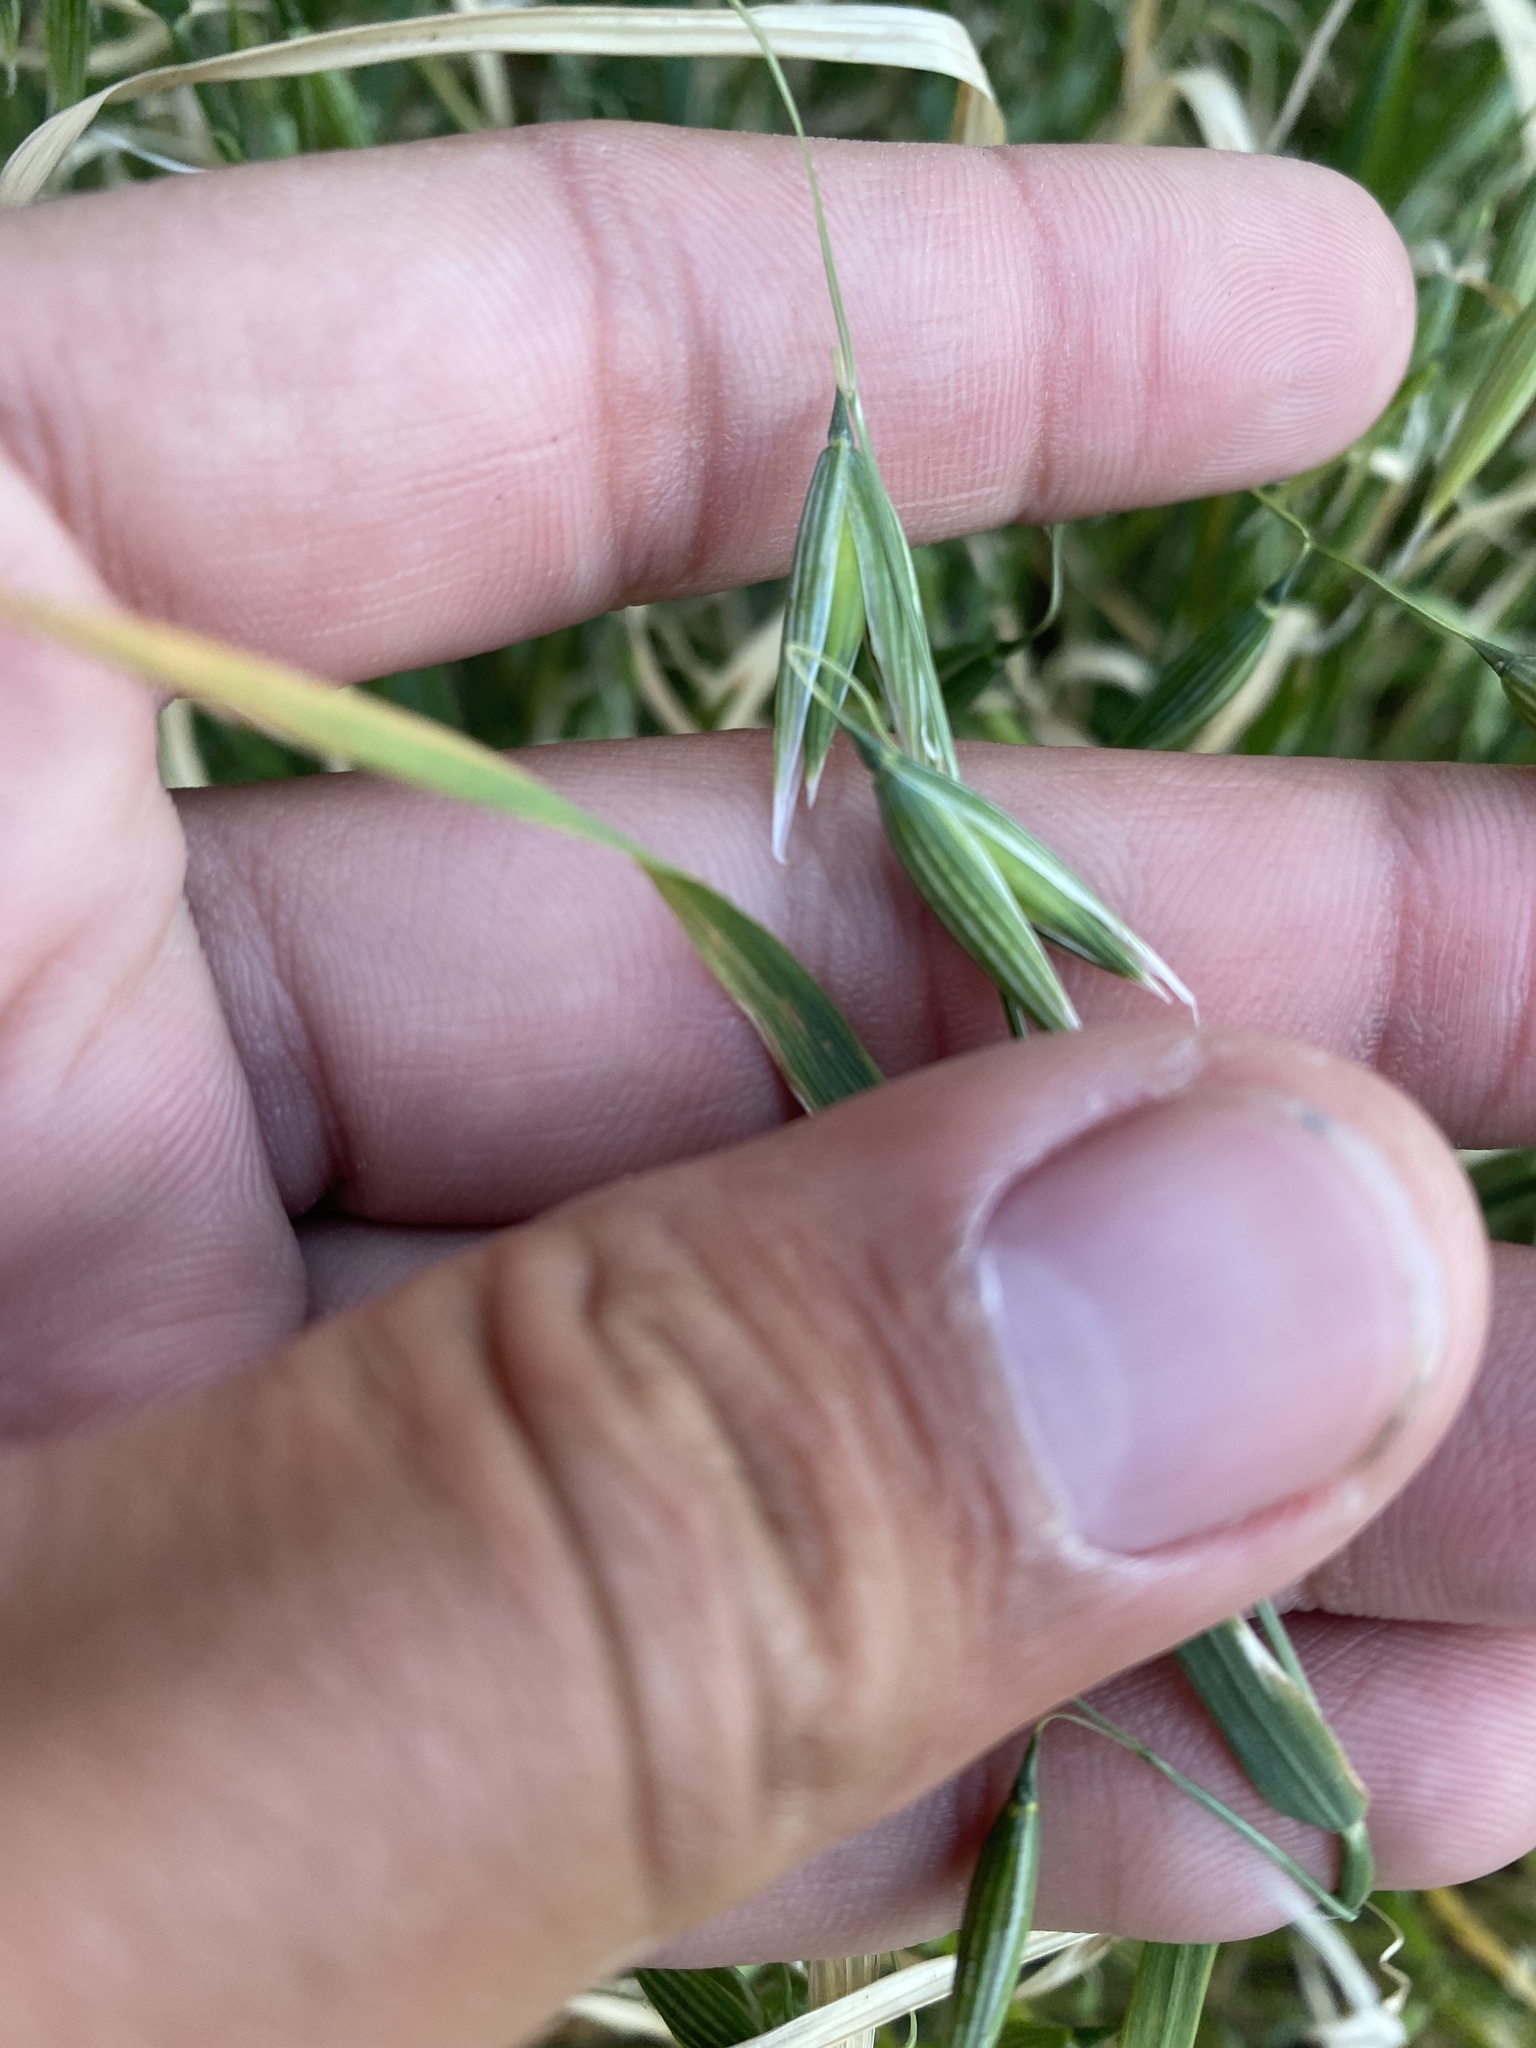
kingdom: Plantae
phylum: Tracheophyta
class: Liliopsida
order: Poales
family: Poaceae
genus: Avena
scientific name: Avena sativa
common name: Oat
